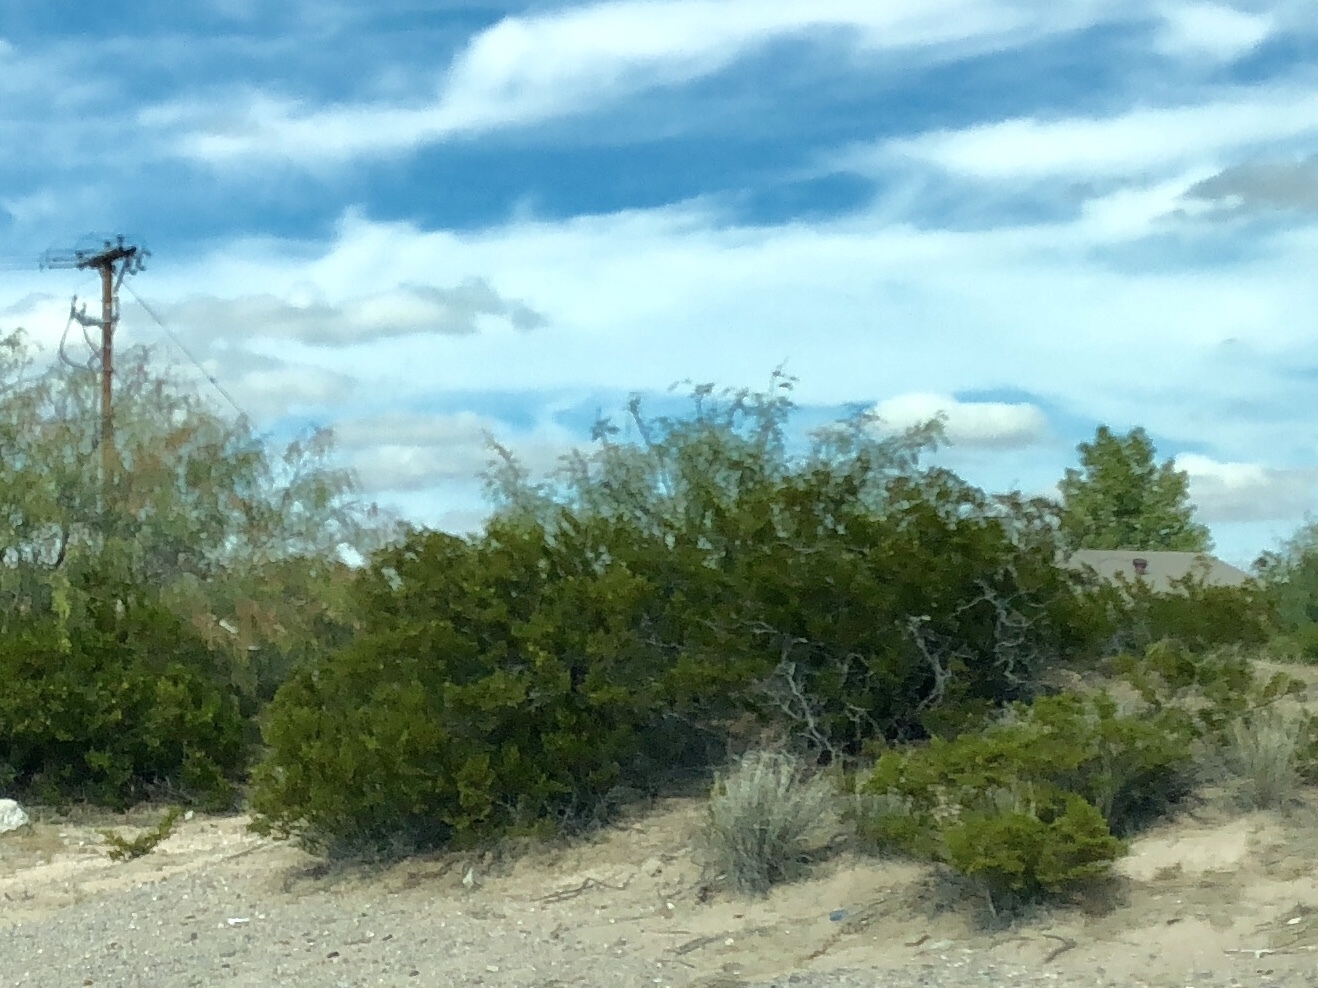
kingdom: Plantae
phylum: Tracheophyta
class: Magnoliopsida
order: Zygophyllales
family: Zygophyllaceae
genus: Larrea
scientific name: Larrea tridentata
